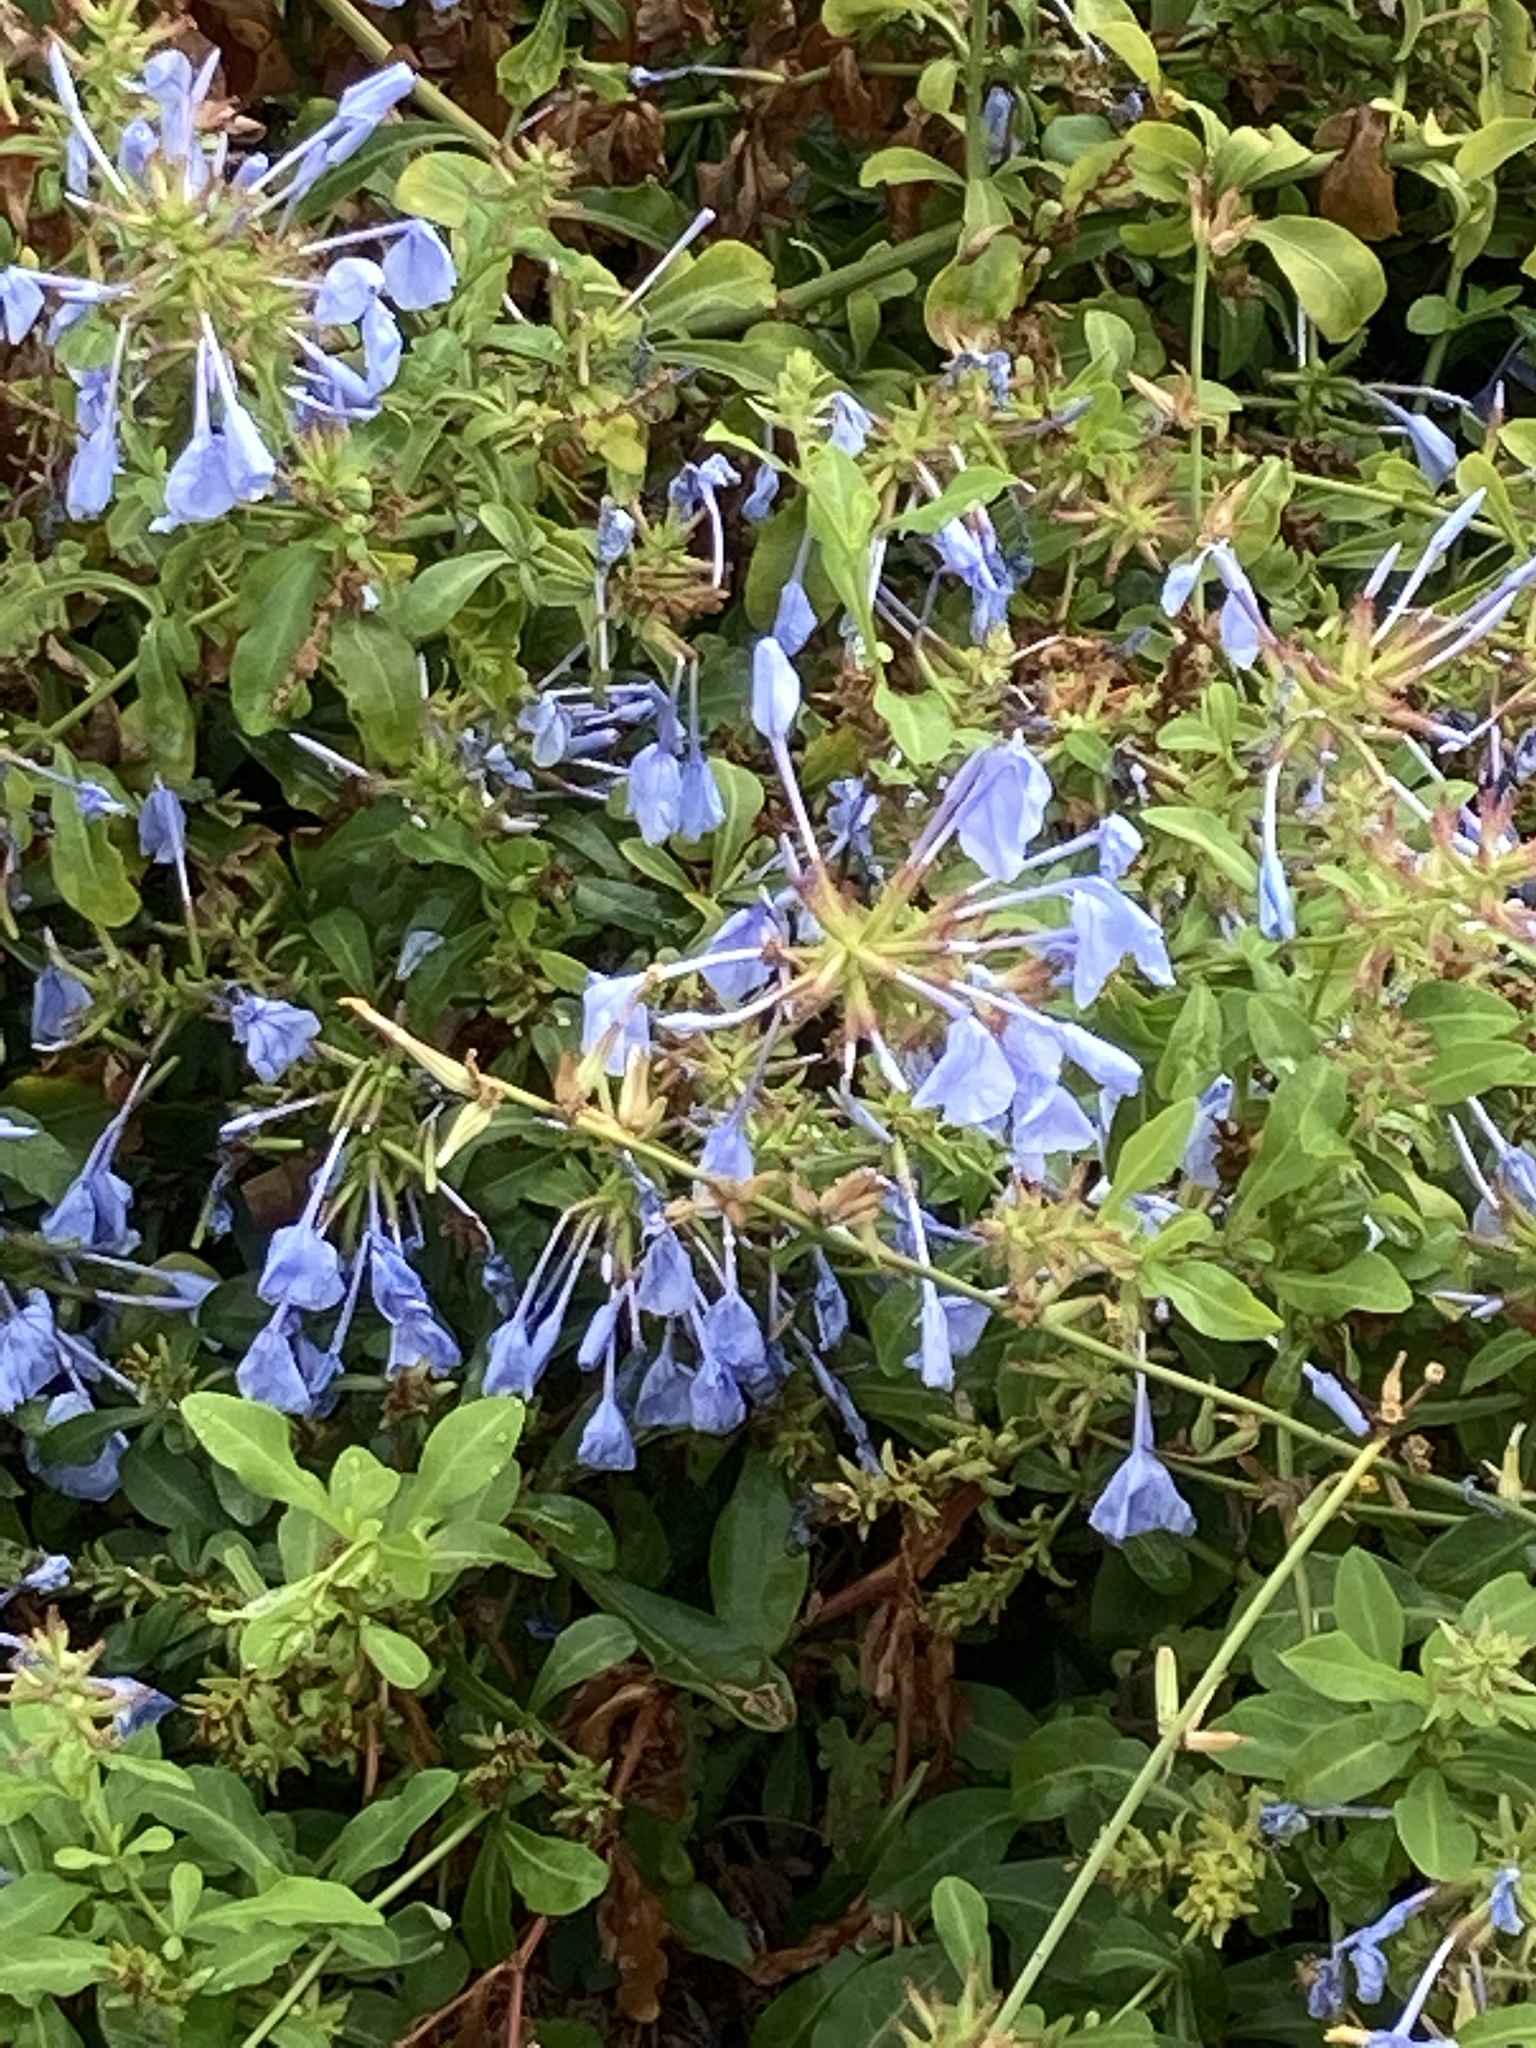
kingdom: Plantae
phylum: Tracheophyta
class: Magnoliopsida
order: Caryophyllales
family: Plumbaginaceae
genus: Plumbago
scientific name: Plumbago auriculata
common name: Cape leadwort
